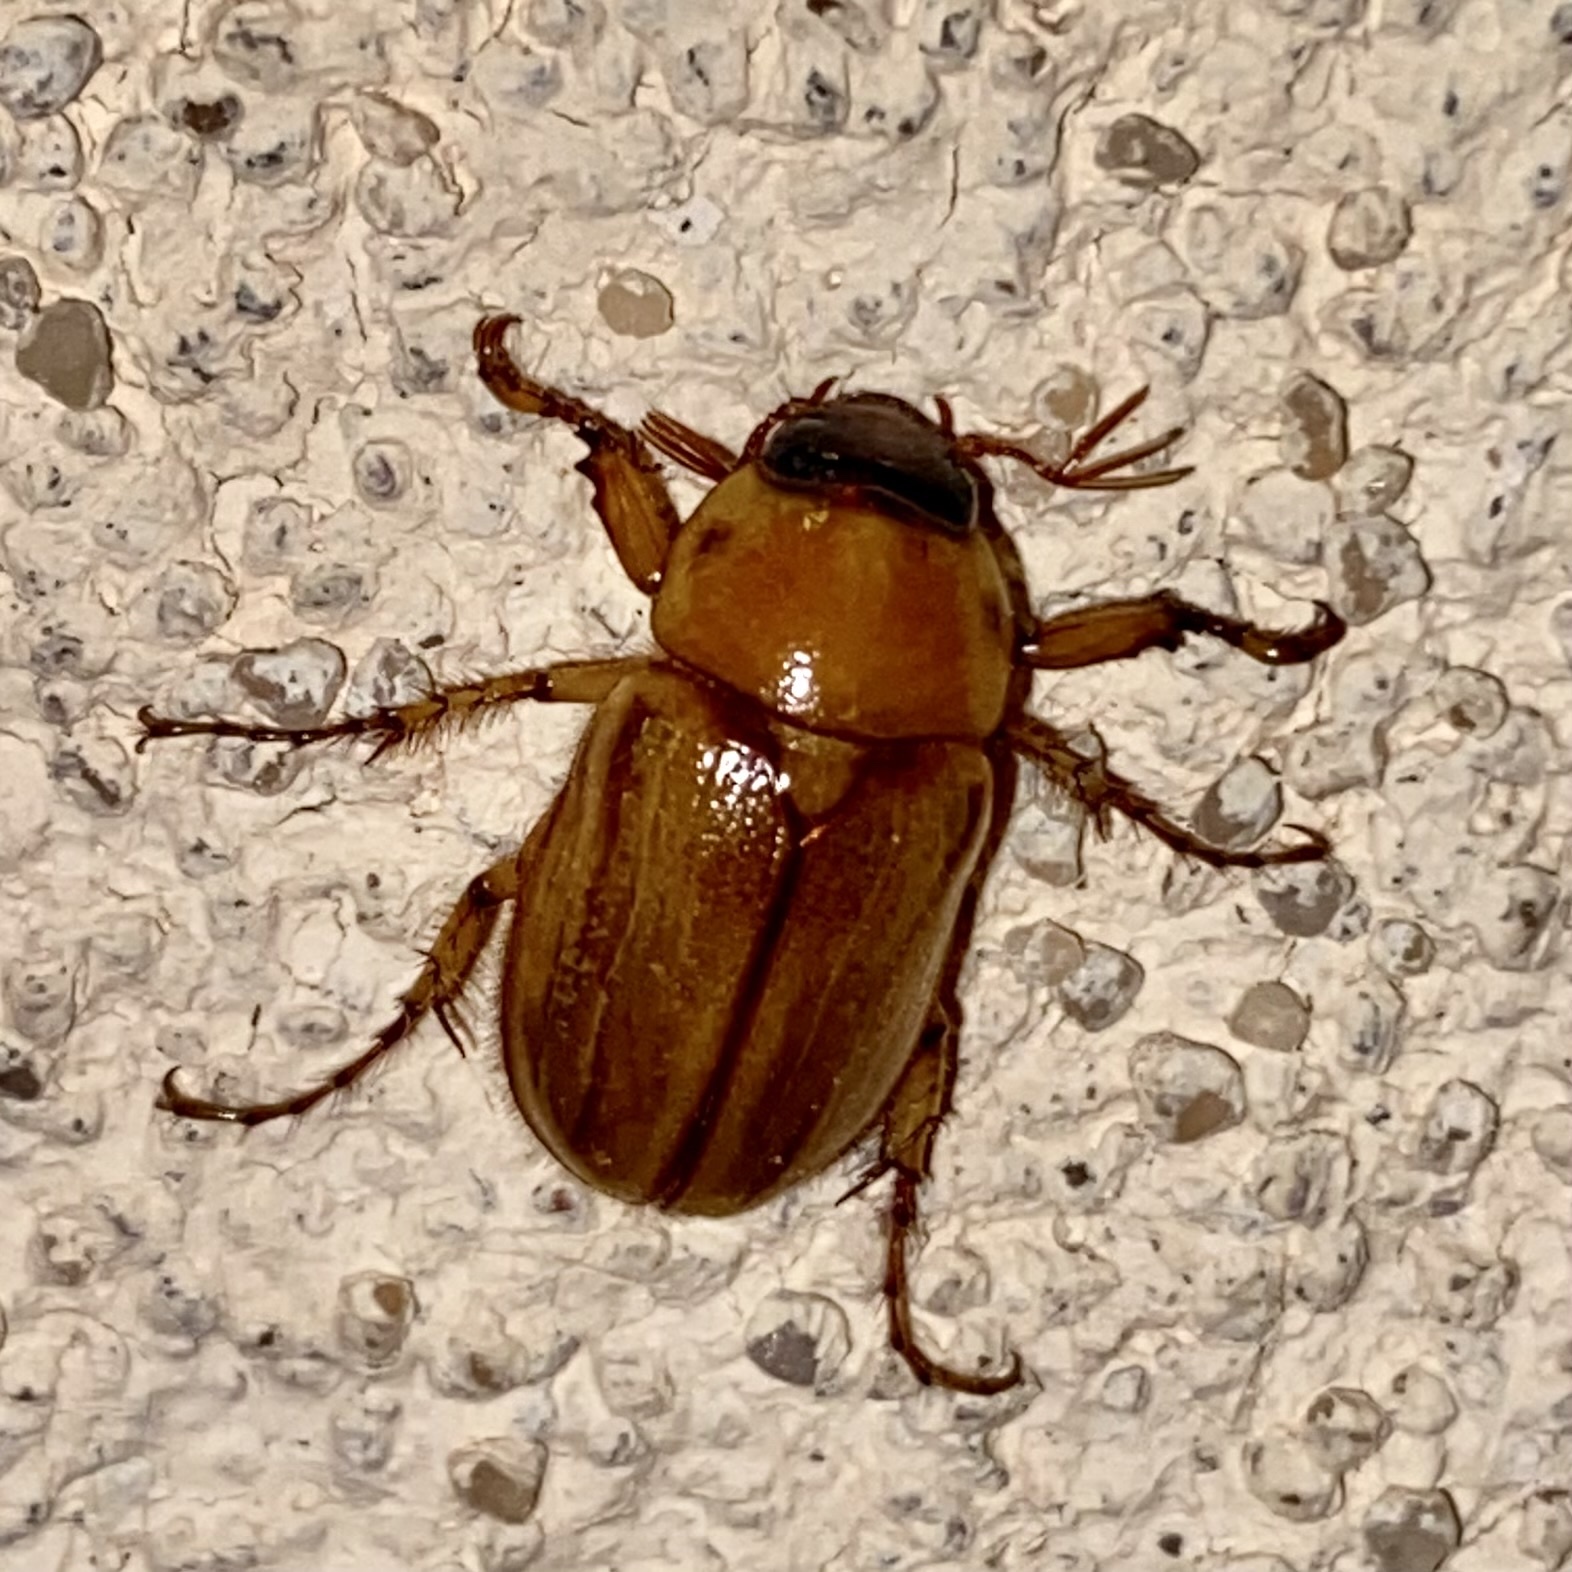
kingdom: Animalia
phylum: Arthropoda
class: Insecta
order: Coleoptera
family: Scarabaeidae
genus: Cyclocephala
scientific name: Cyclocephala pasadenae
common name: Pasadena masked chafer
